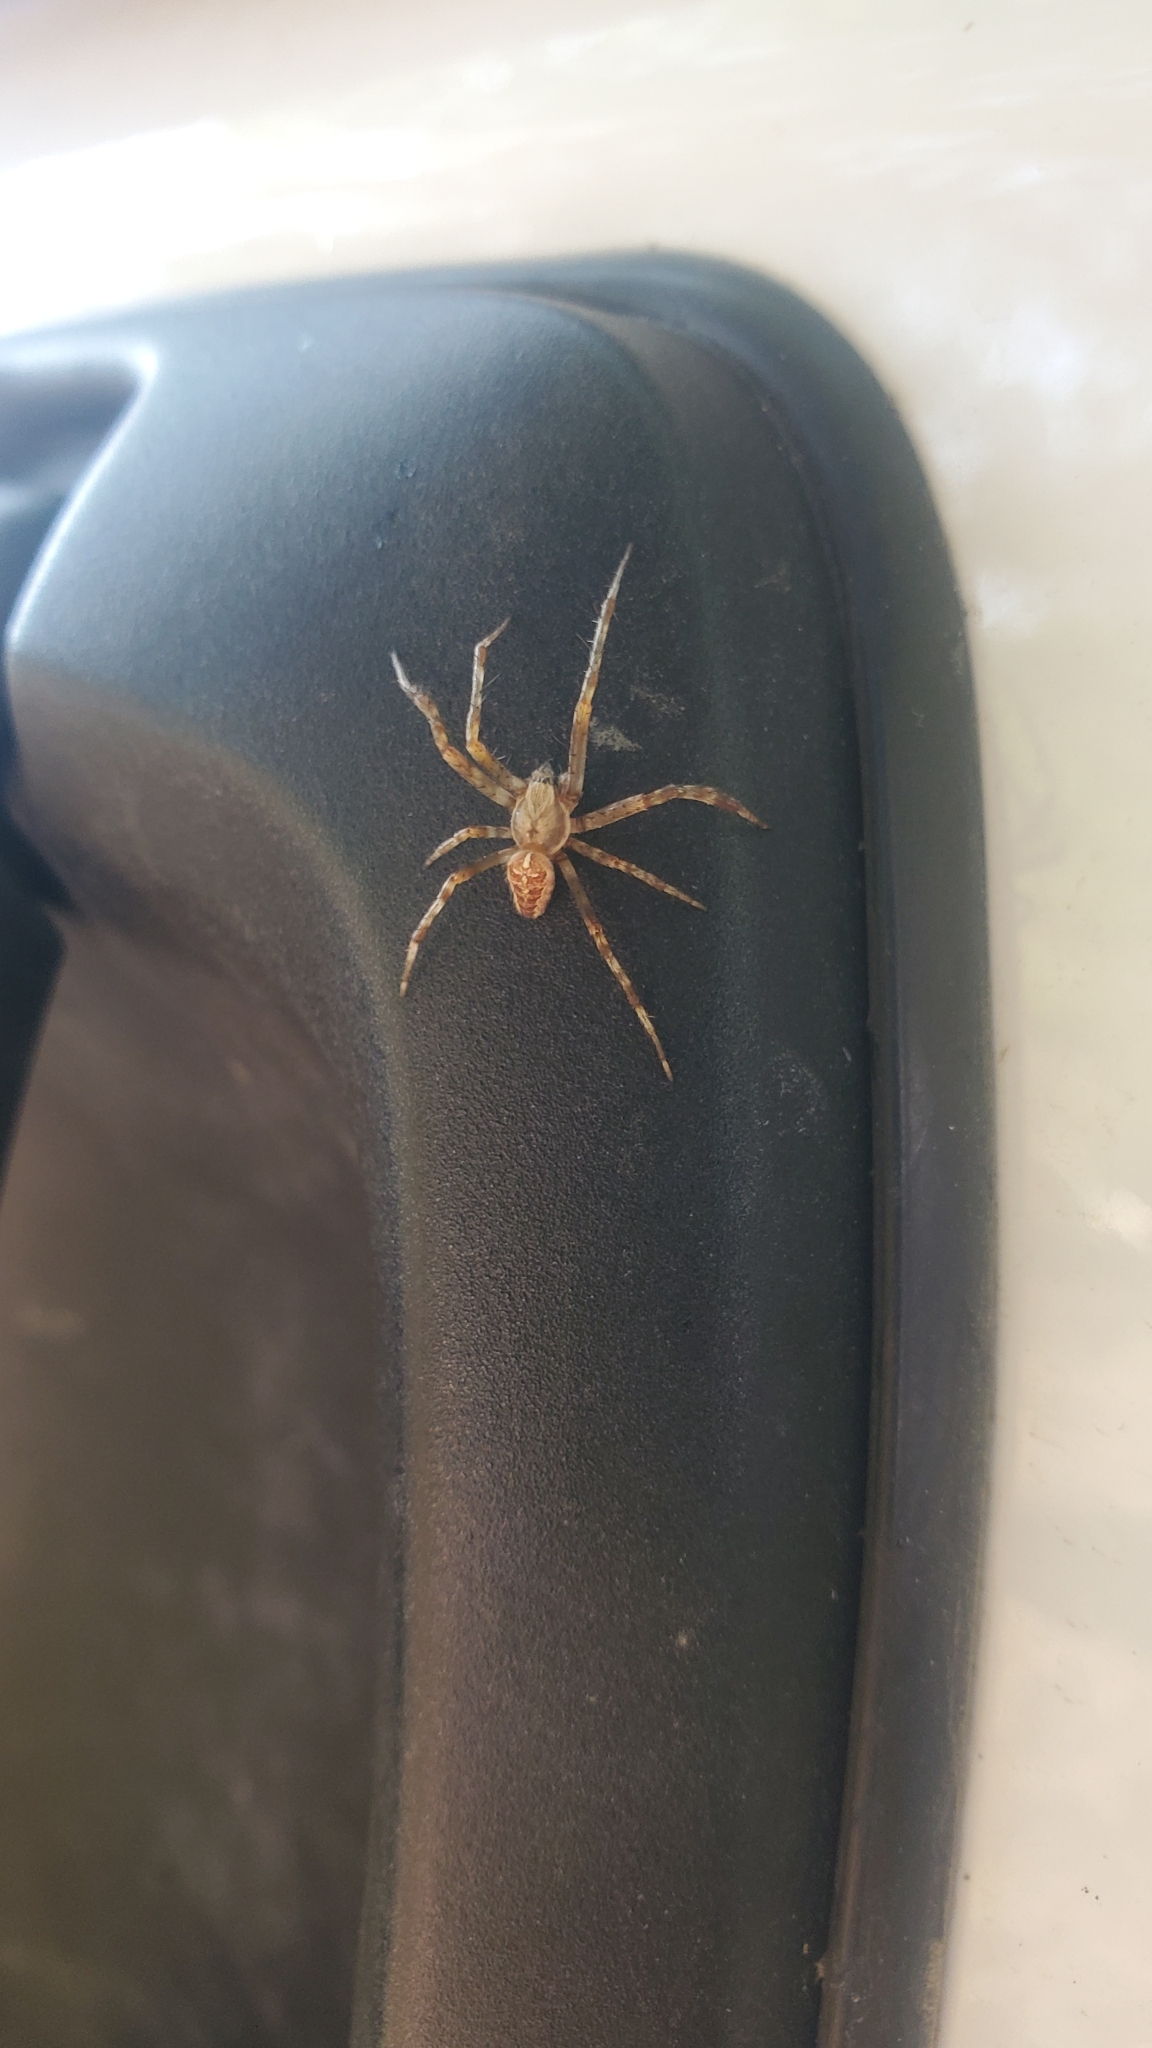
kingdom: Animalia
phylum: Arthropoda
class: Arachnida
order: Araneae
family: Araneidae
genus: Araneus
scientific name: Araneus diadematus
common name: Cross orbweaver
